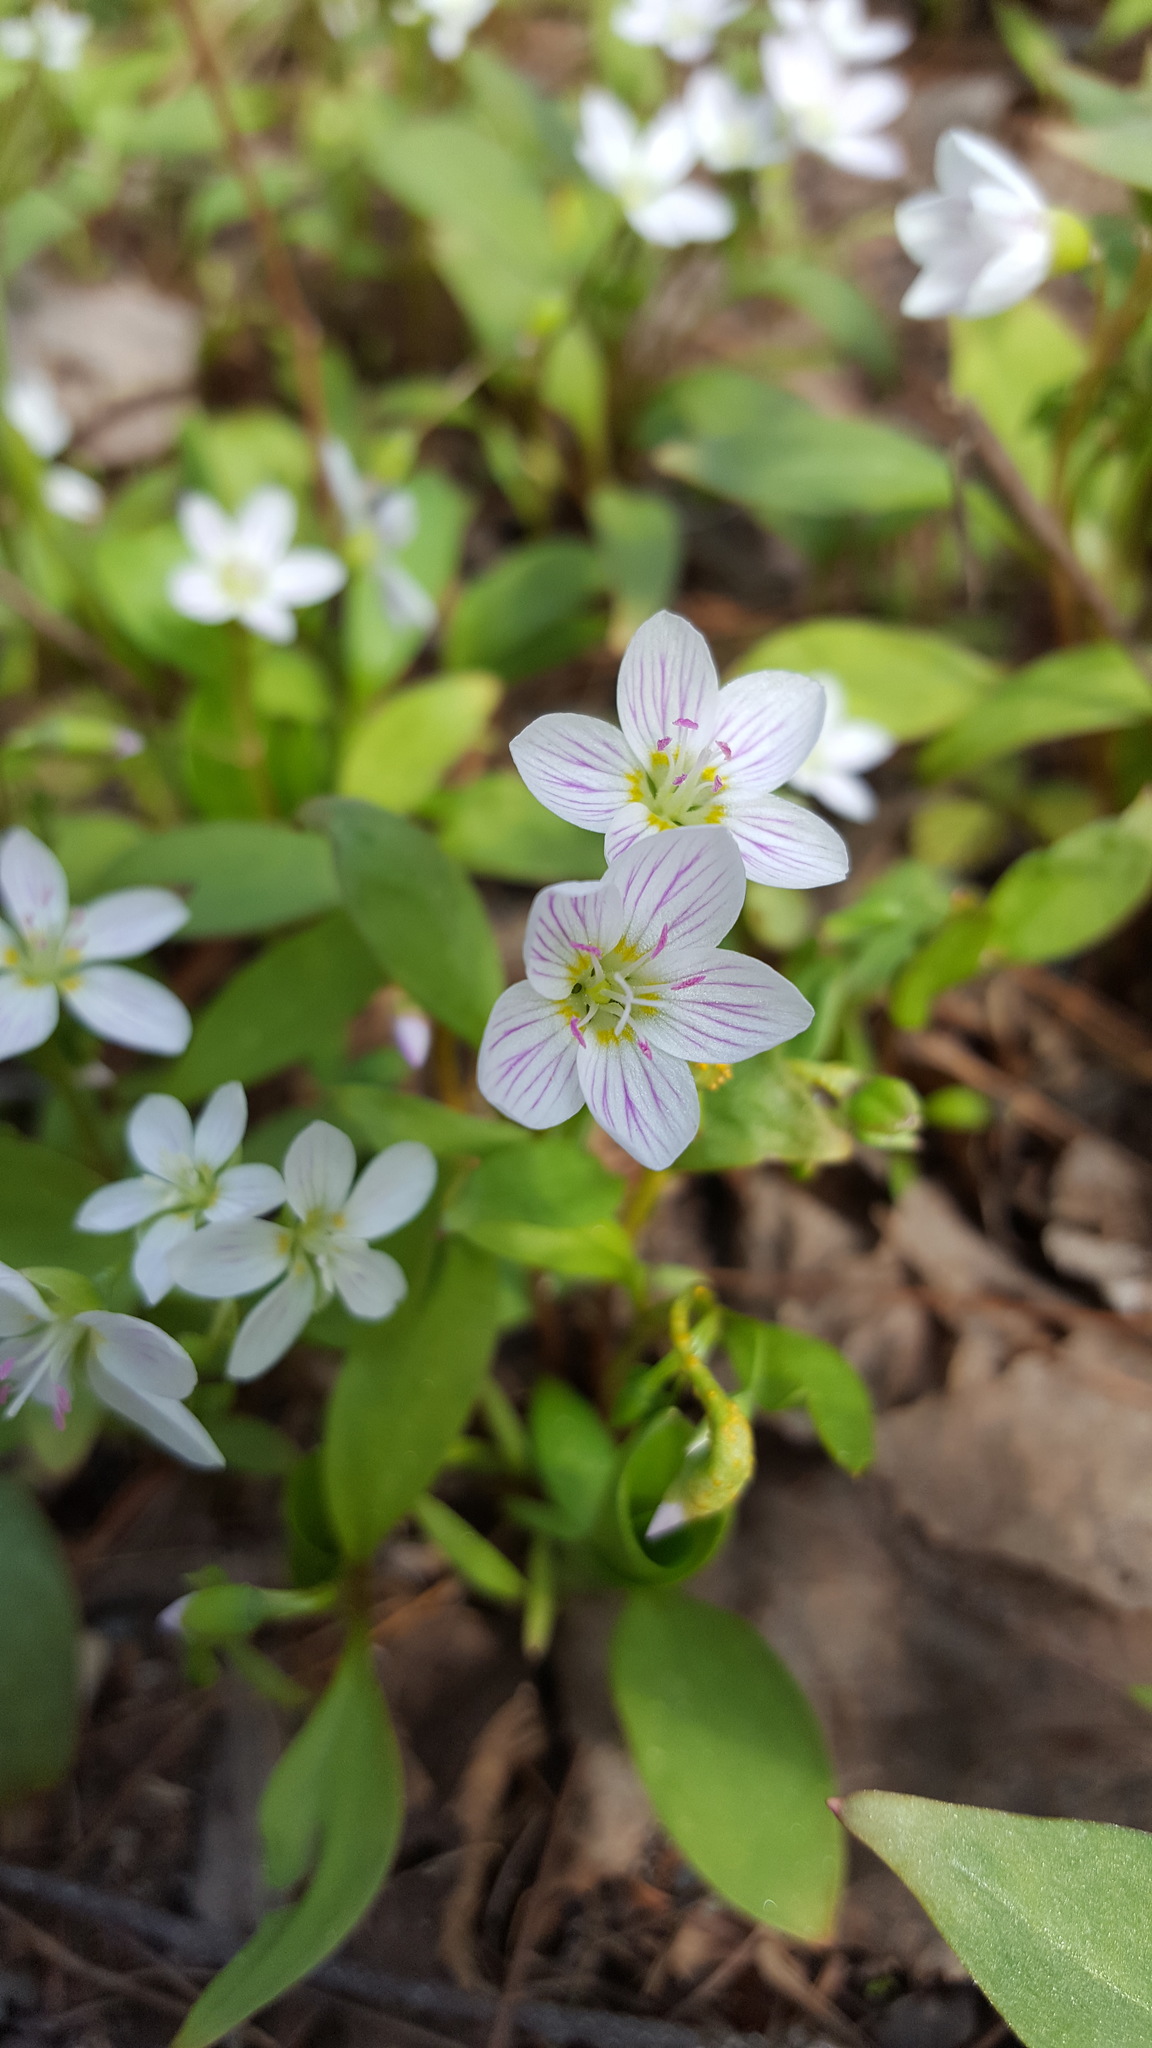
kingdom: Plantae
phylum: Tracheophyta
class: Magnoliopsida
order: Caryophyllales
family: Montiaceae
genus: Claytonia
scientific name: Claytonia caroliniana
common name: Carolina spring beauty
